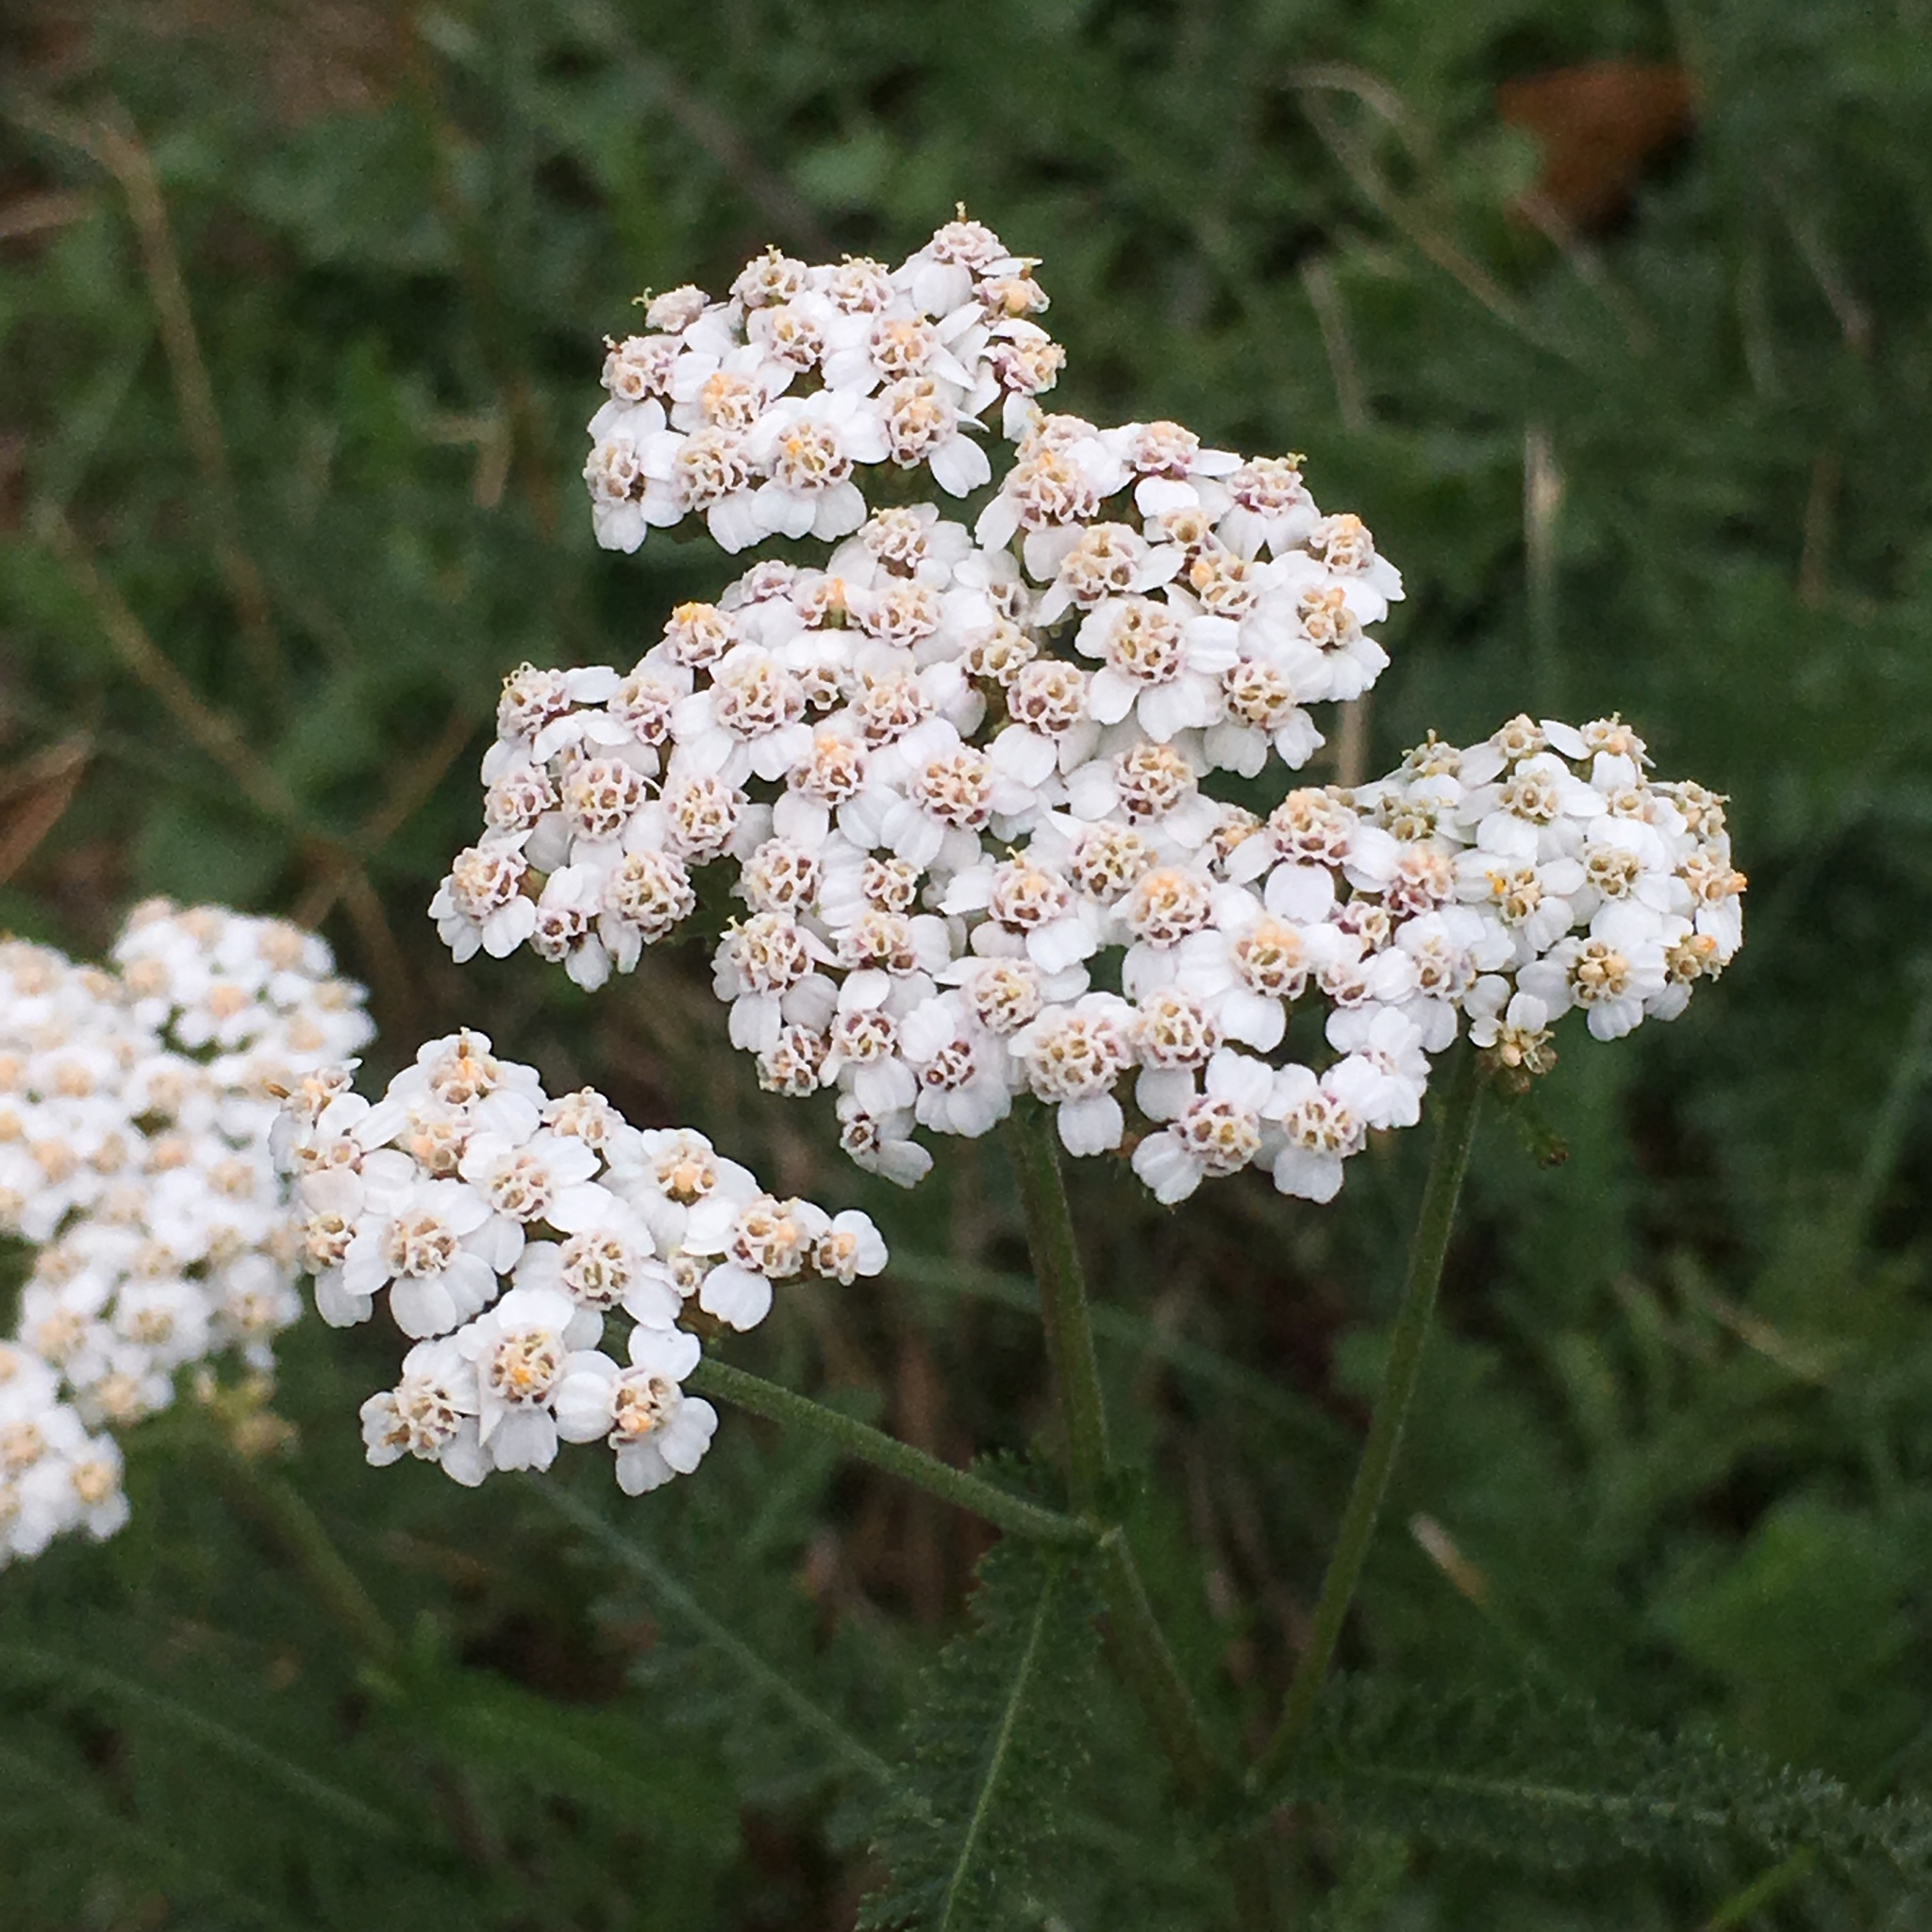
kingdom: Plantae
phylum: Tracheophyta
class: Magnoliopsida
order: Asterales
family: Asteraceae
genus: Achillea
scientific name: Achillea millefolium
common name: Yarrow
